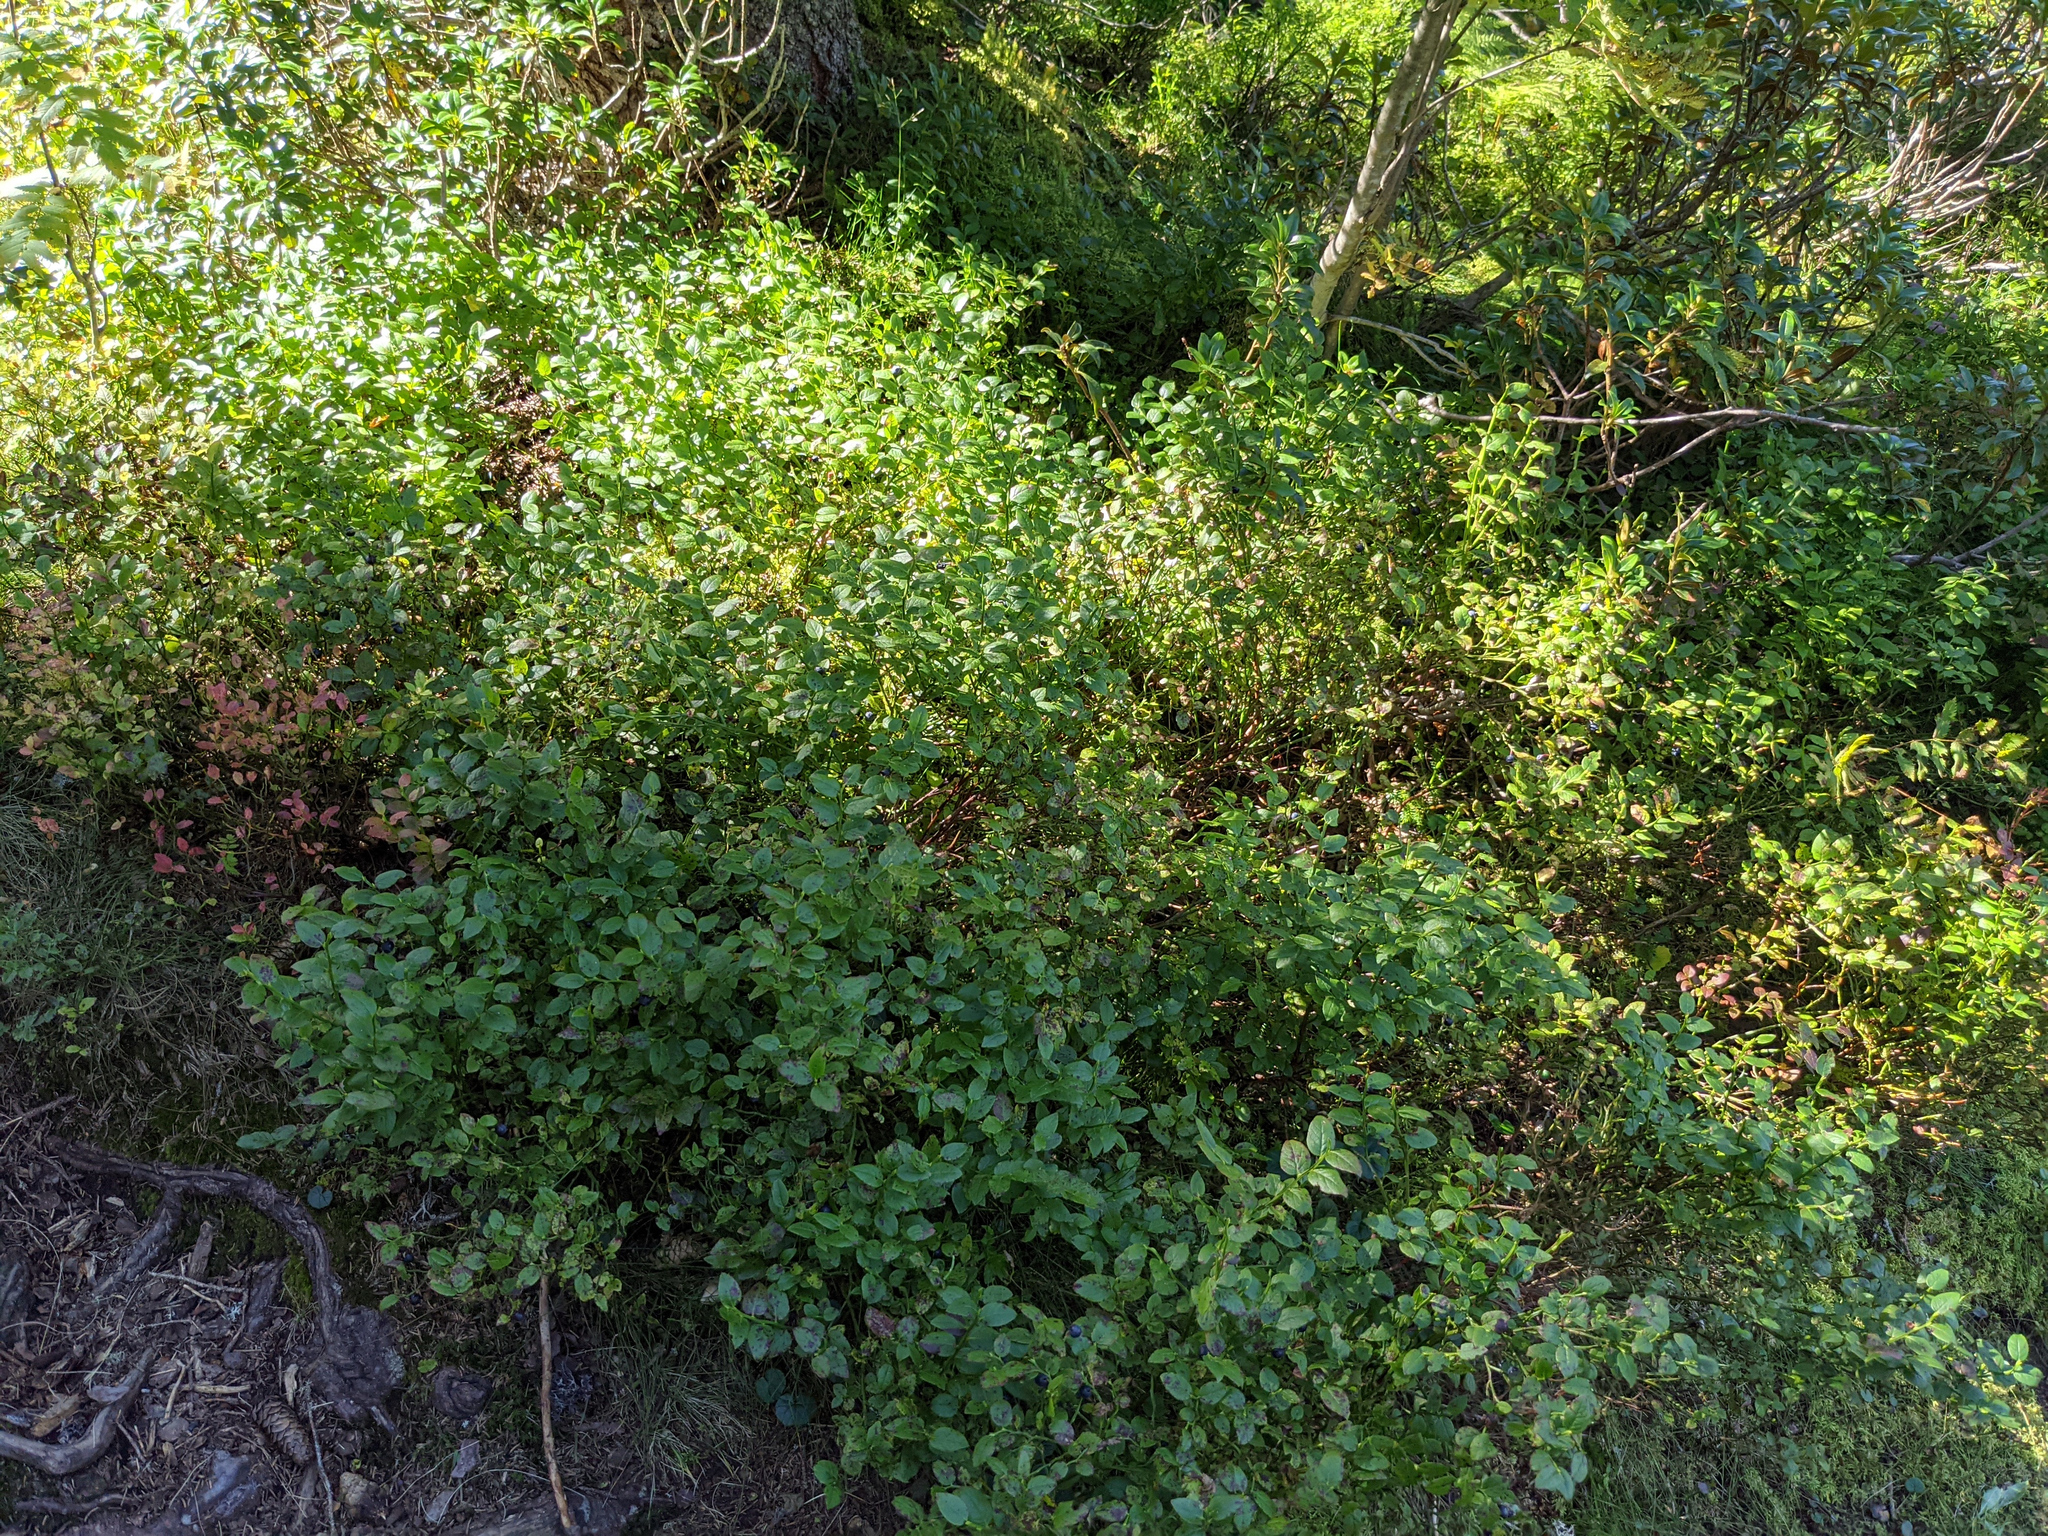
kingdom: Plantae
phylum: Tracheophyta
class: Magnoliopsida
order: Ericales
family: Ericaceae
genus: Vaccinium
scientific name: Vaccinium myrtillus
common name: Bilberry
